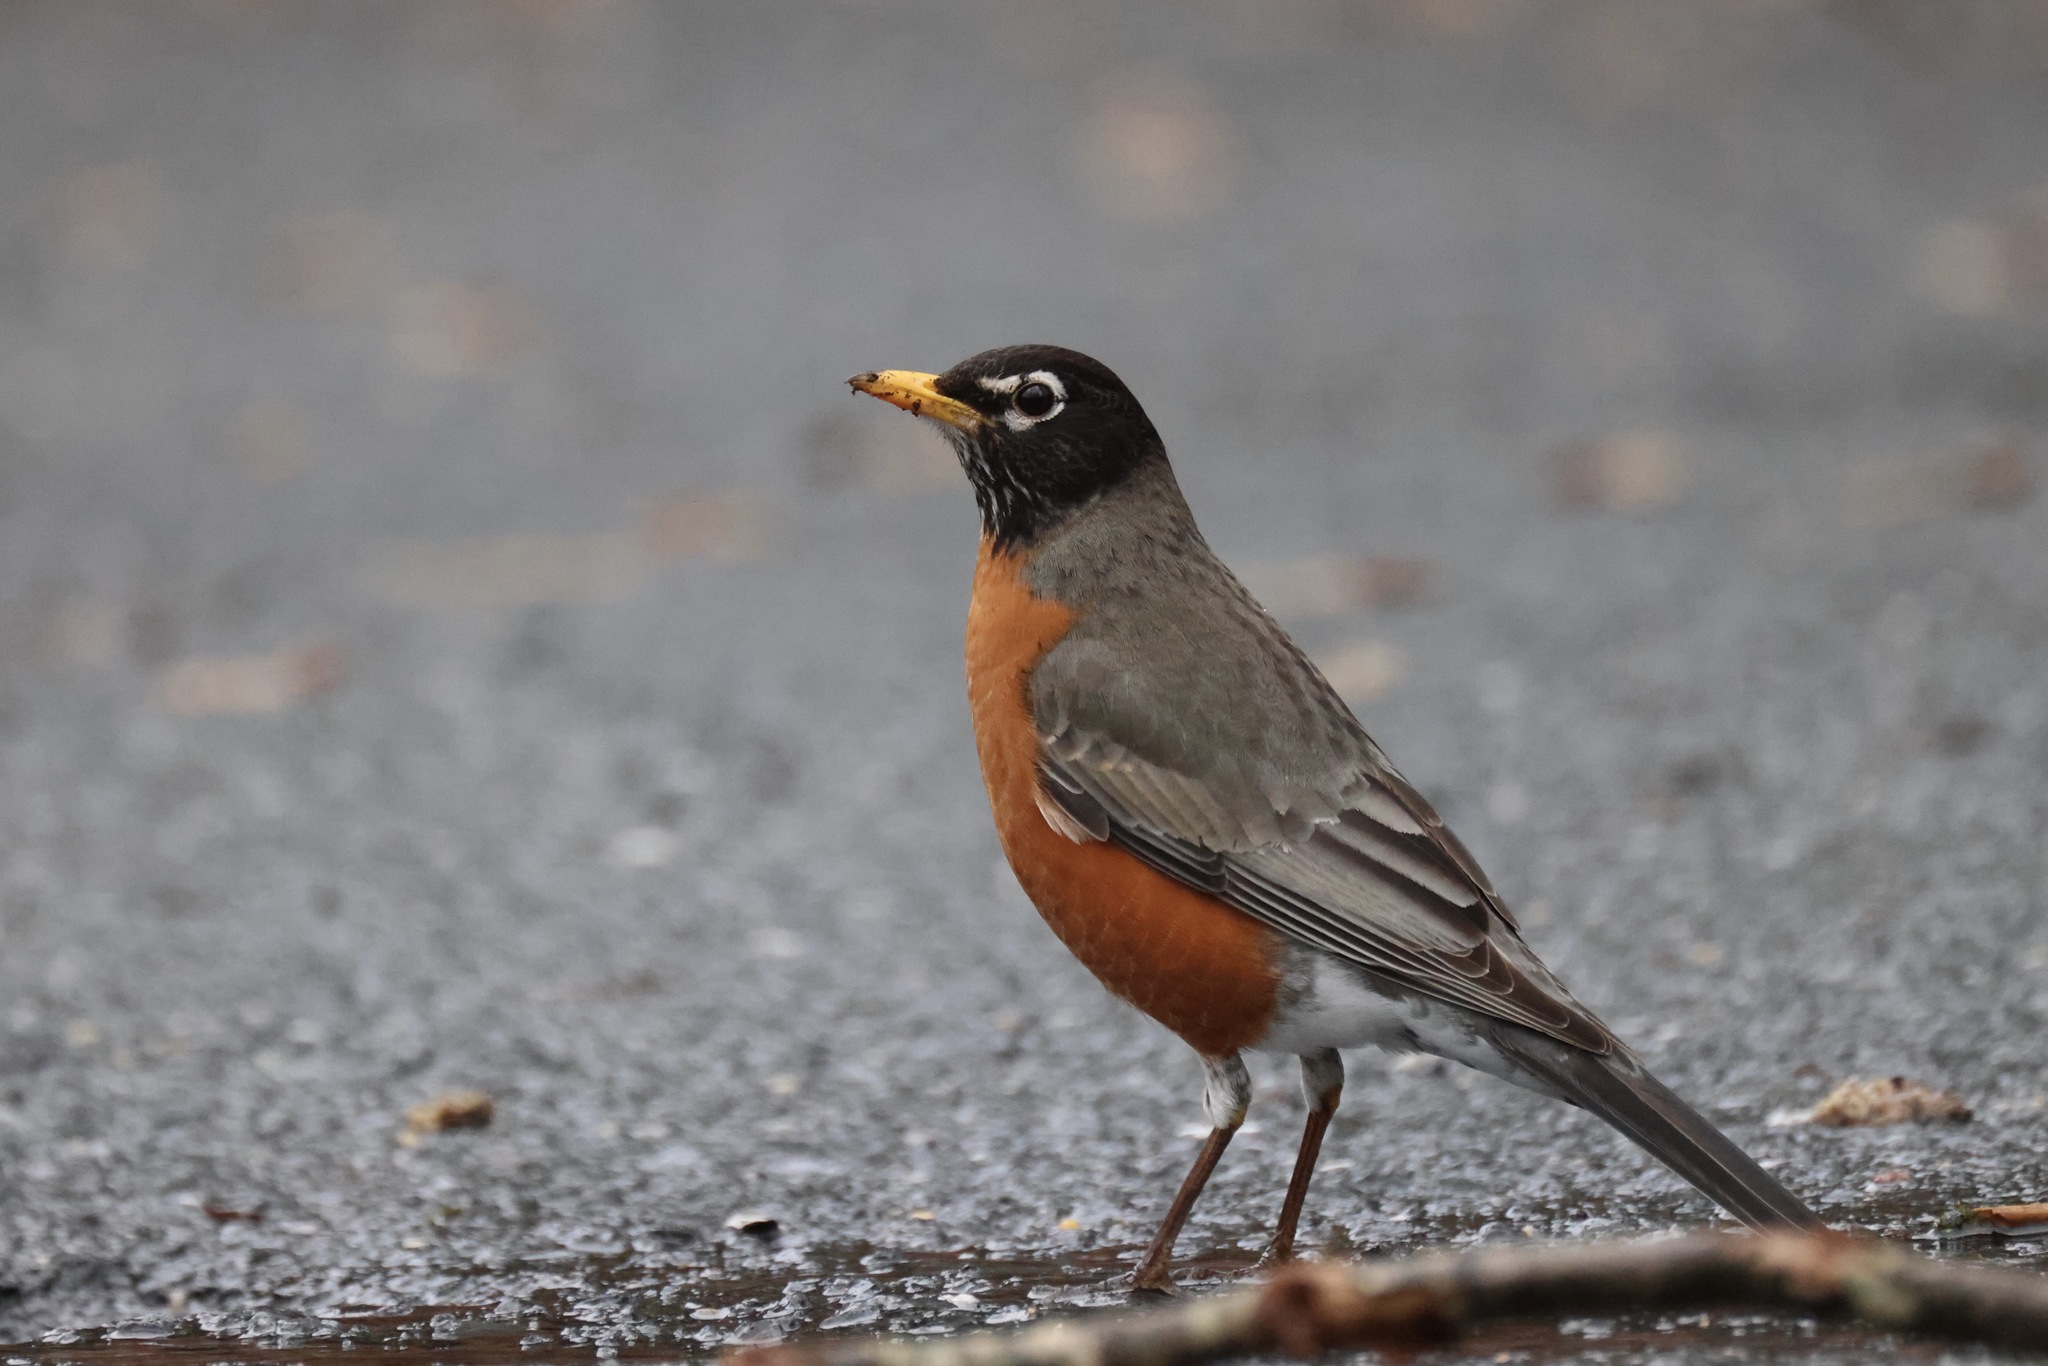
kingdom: Animalia
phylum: Chordata
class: Aves
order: Passeriformes
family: Turdidae
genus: Turdus
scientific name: Turdus migratorius
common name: American robin
